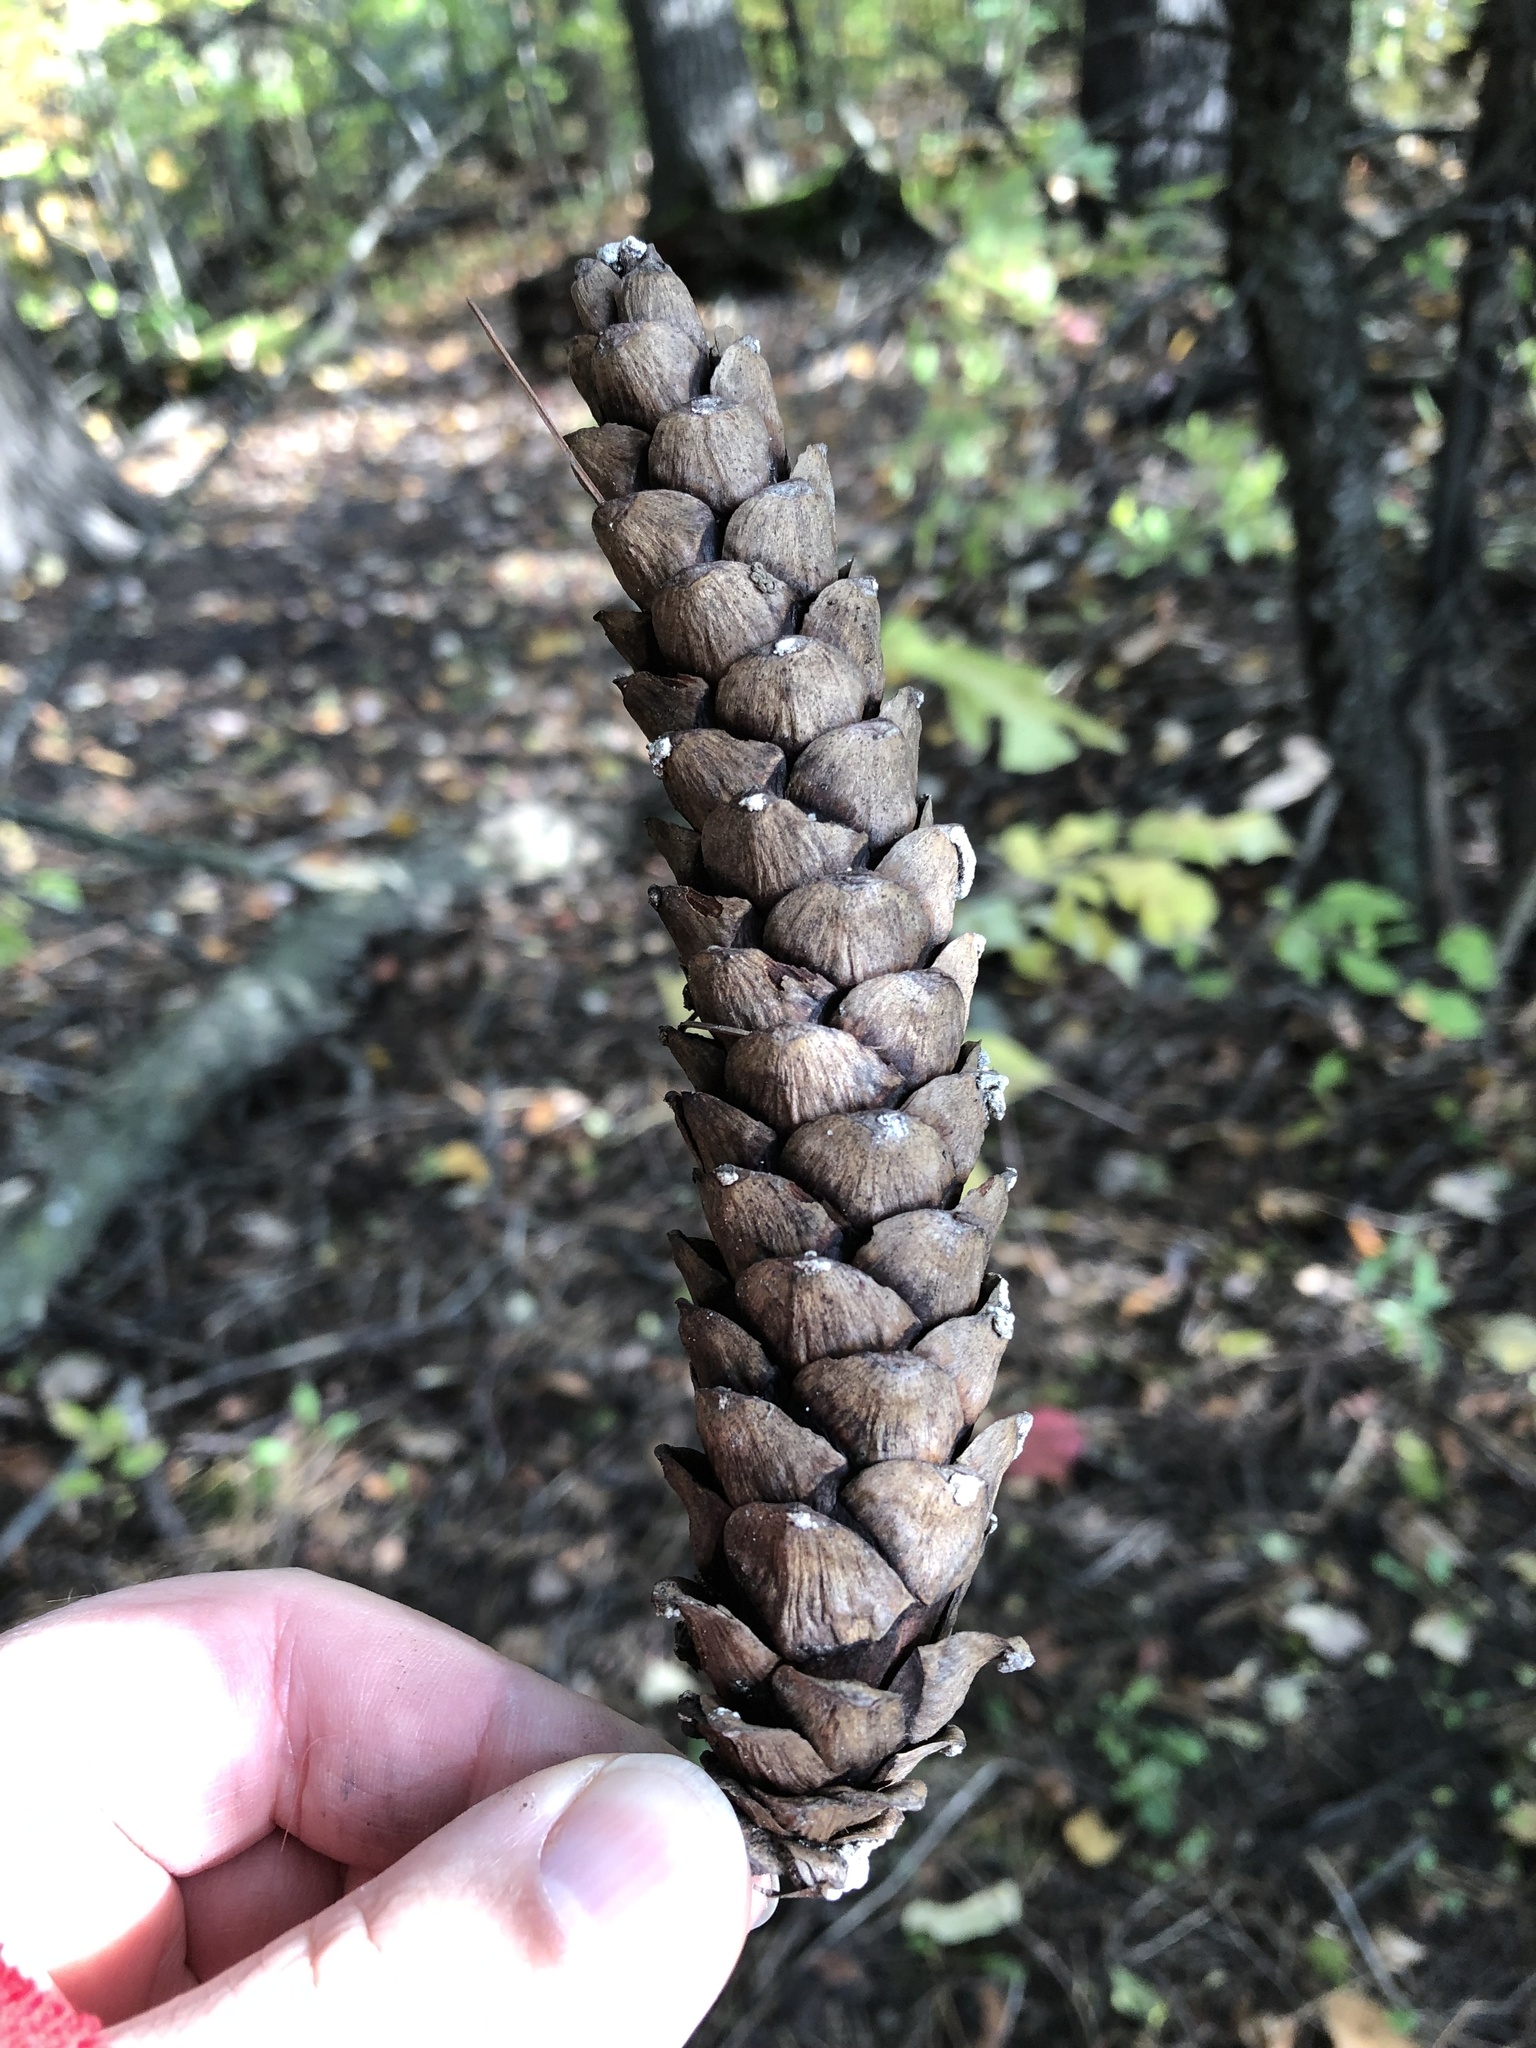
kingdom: Plantae
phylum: Tracheophyta
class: Pinopsida
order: Pinales
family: Pinaceae
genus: Pinus
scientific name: Pinus strobus
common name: Weymouth pine
